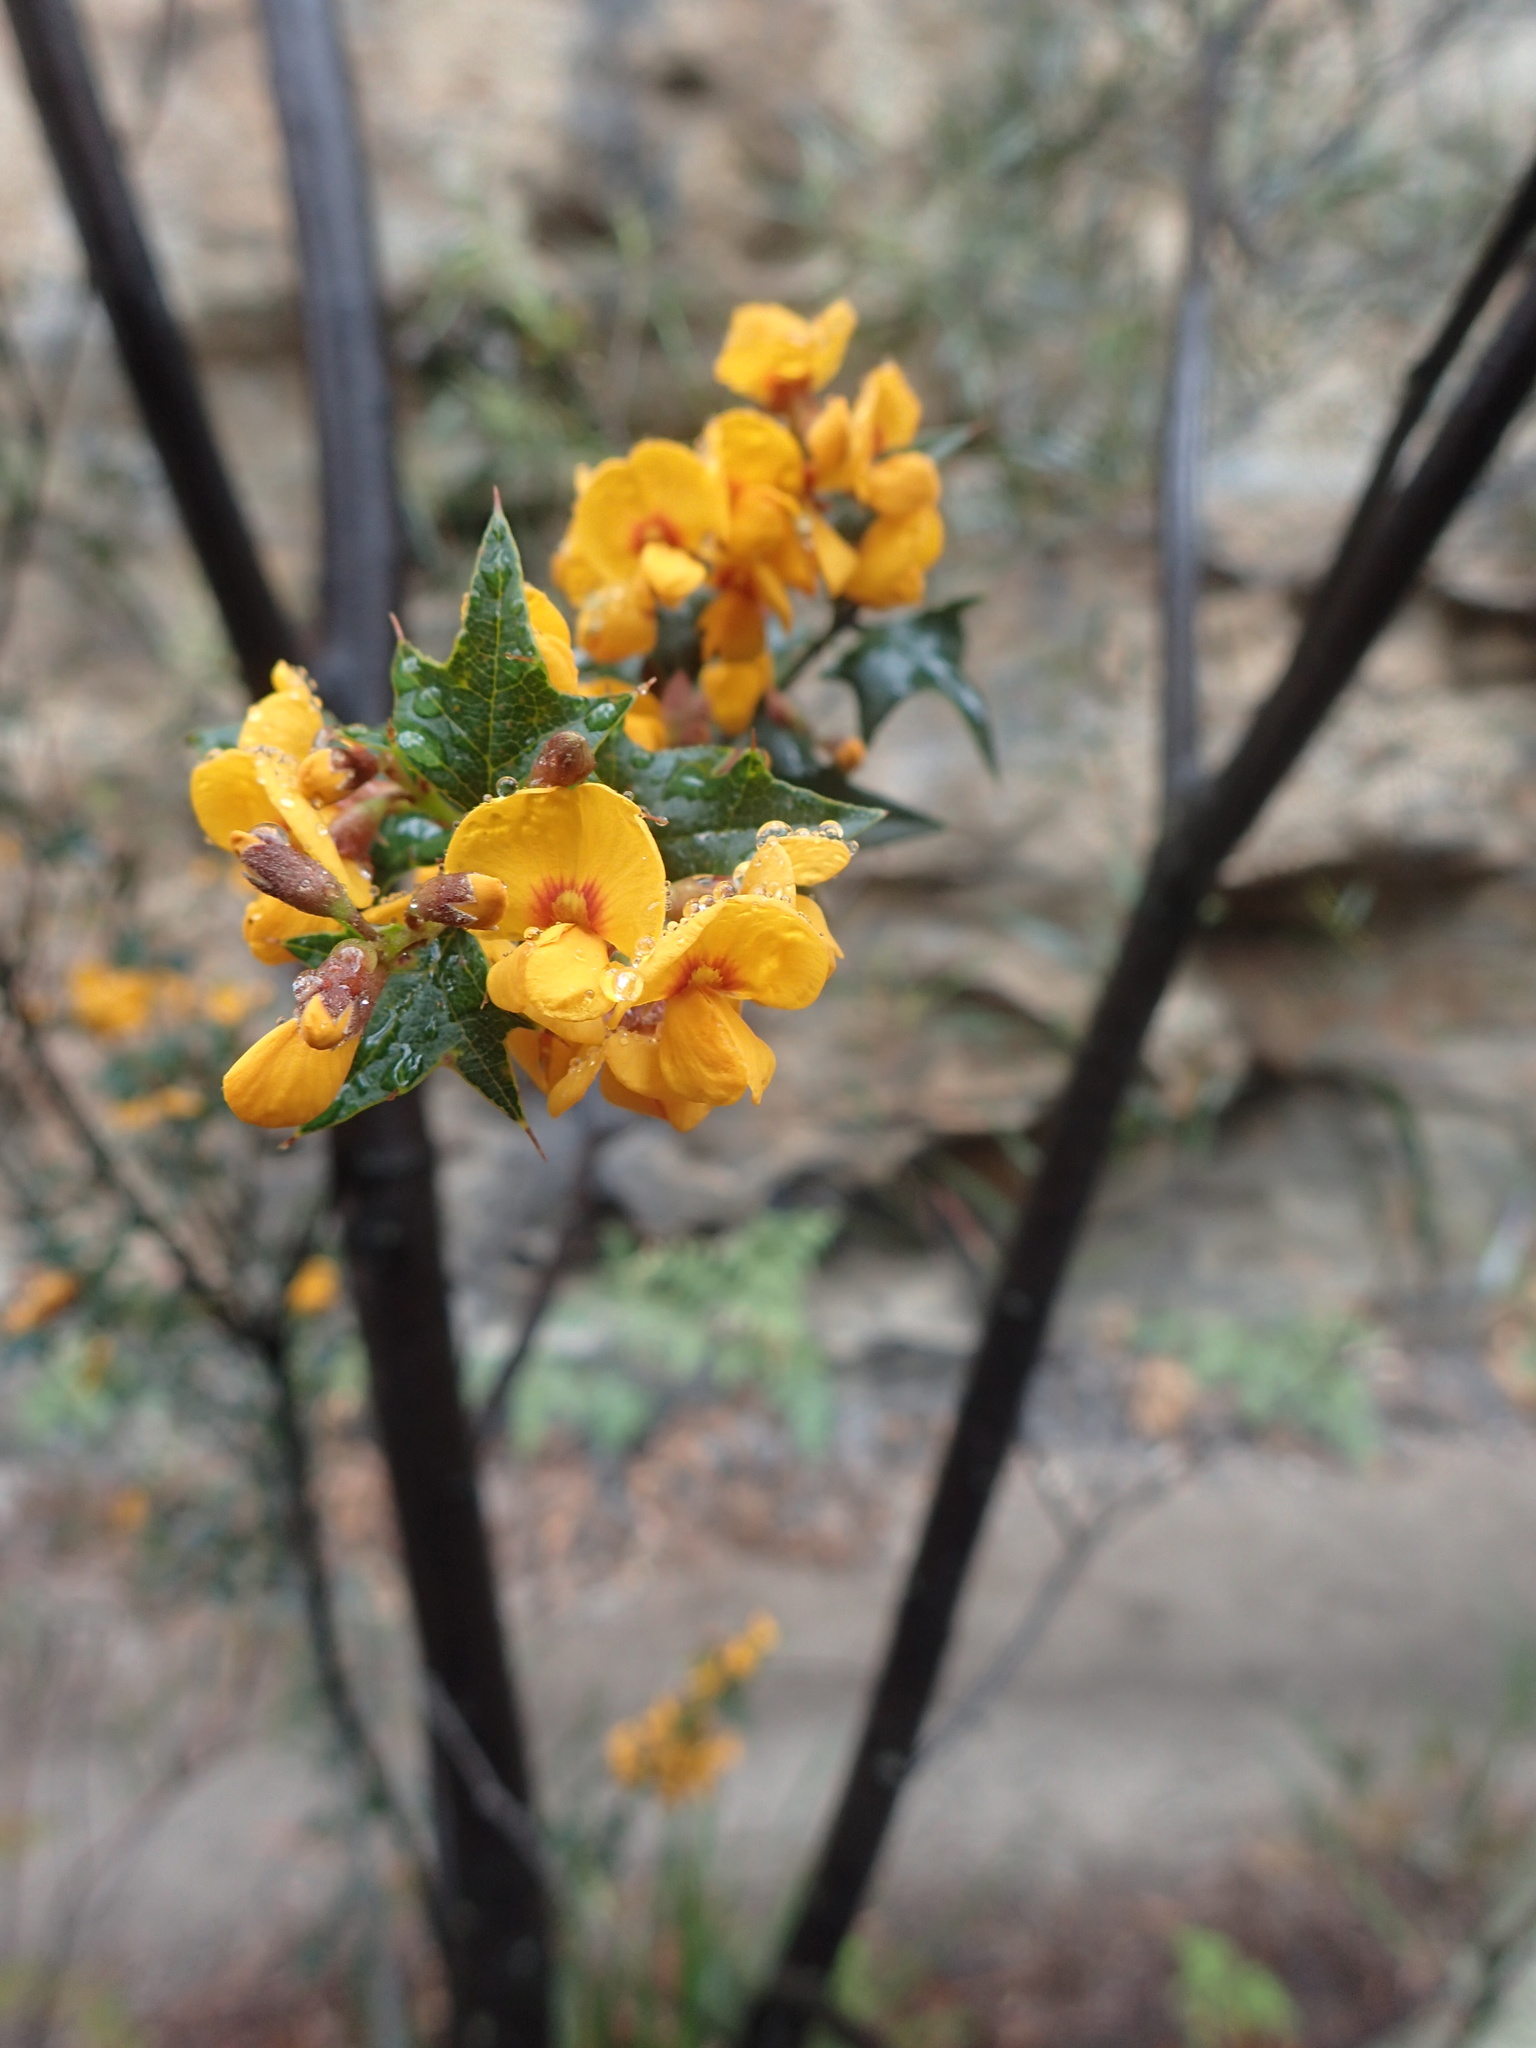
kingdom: Plantae
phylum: Tracheophyta
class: Magnoliopsida
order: Fabales
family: Fabaceae
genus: Podolobium
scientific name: Podolobium ilicifolium
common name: Native holly
